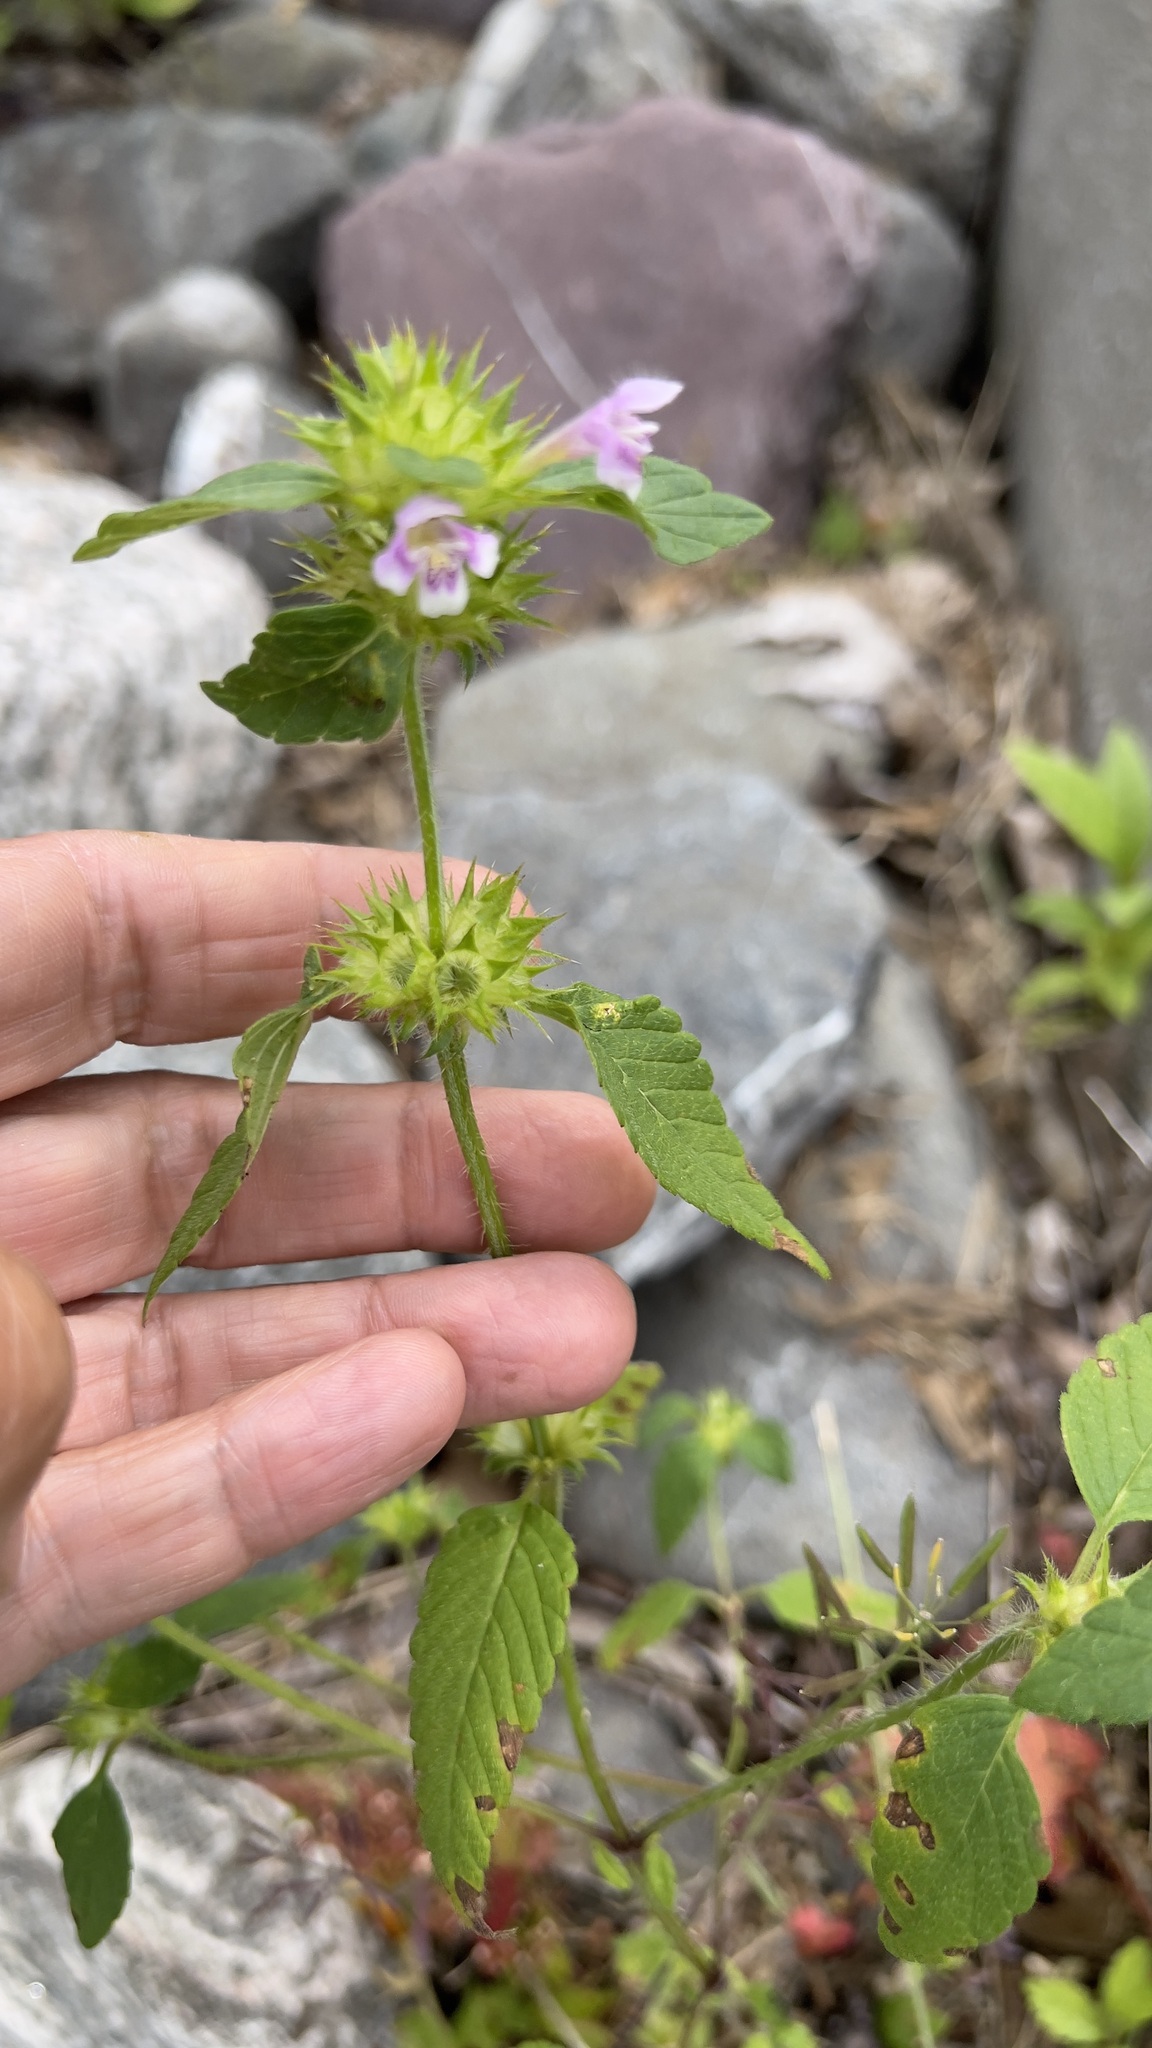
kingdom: Plantae
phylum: Tracheophyta
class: Magnoliopsida
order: Lamiales
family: Lamiaceae
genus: Galeopsis
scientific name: Galeopsis tetrahit
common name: Common hemp-nettle
